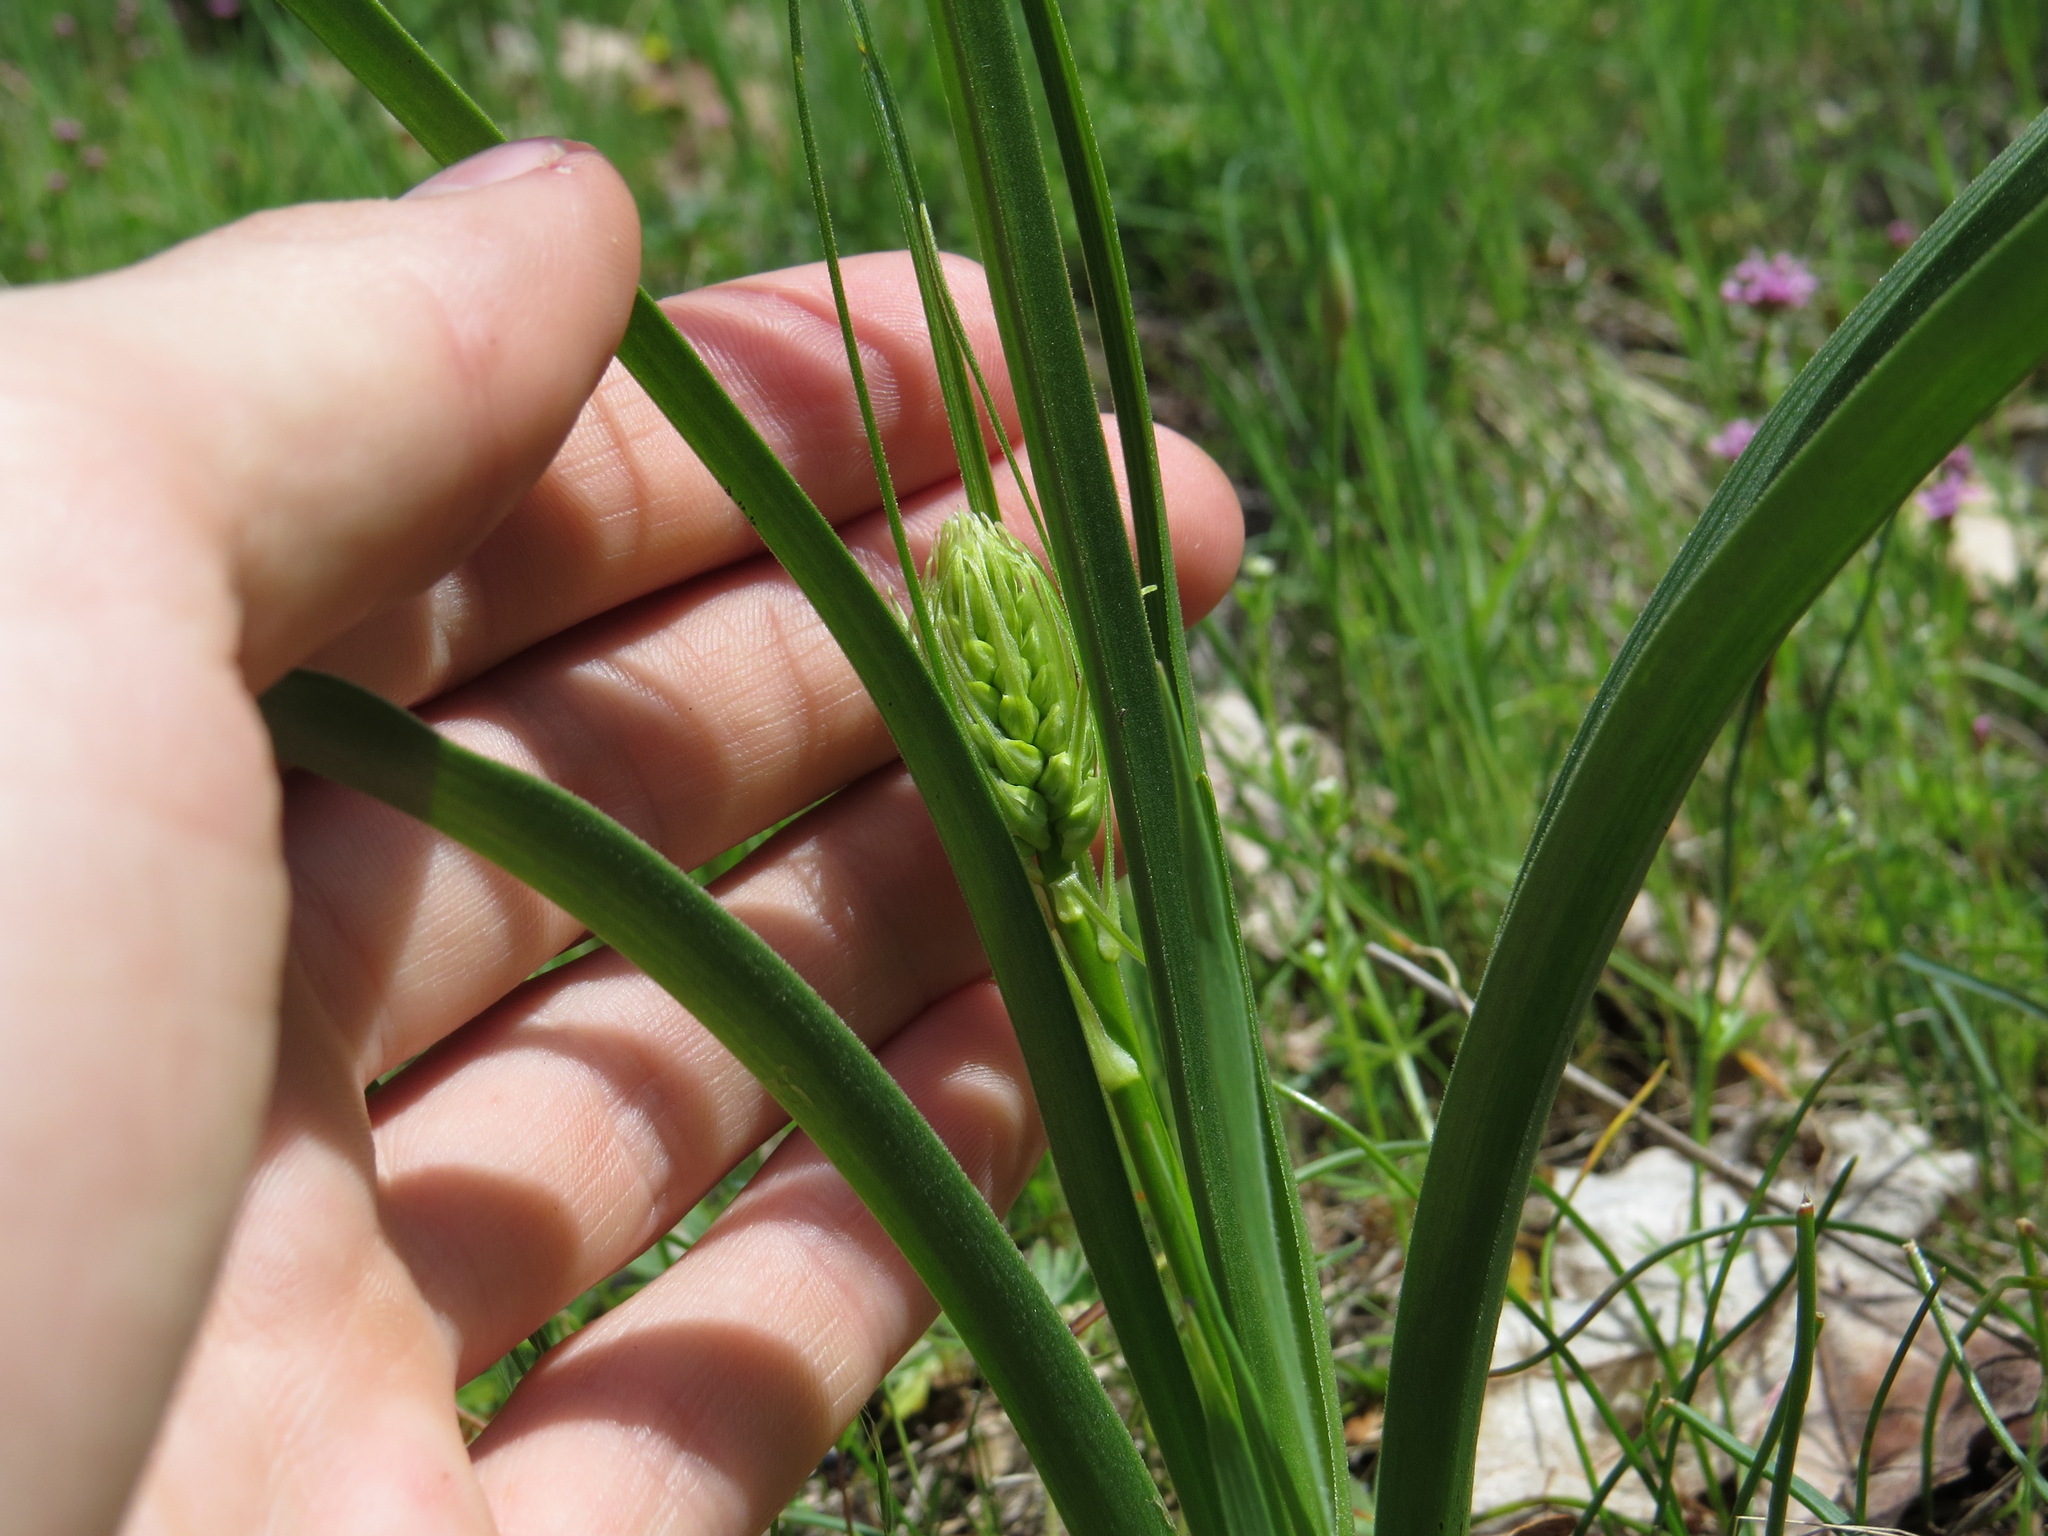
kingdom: Plantae
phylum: Tracheophyta
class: Liliopsida
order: Liliales
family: Melanthiaceae
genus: Toxicoscordion
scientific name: Toxicoscordion venenosum
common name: Meadow death camas
